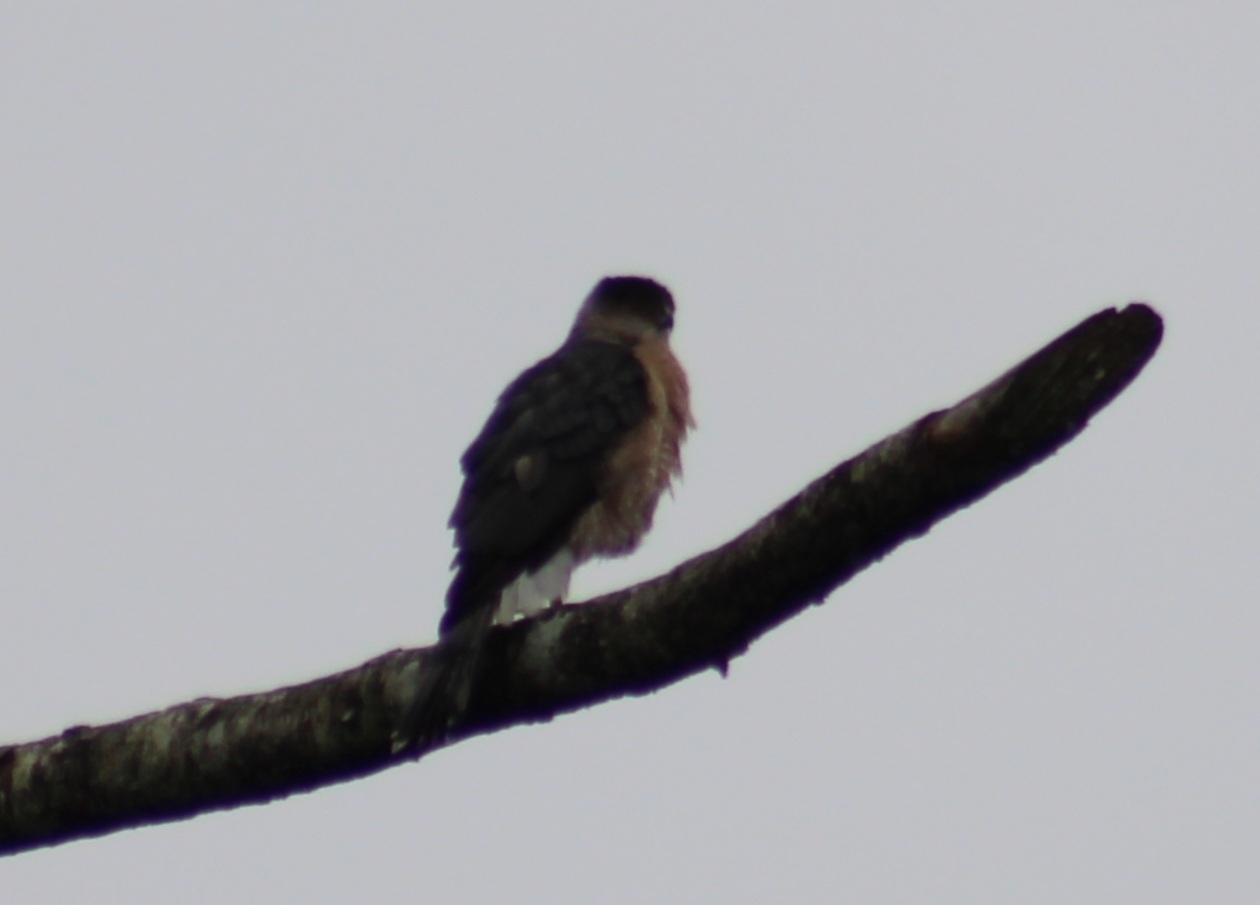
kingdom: Animalia
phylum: Chordata
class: Aves
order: Accipitriformes
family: Accipitridae
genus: Accipiter
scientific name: Accipiter cooperii
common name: Cooper's hawk
